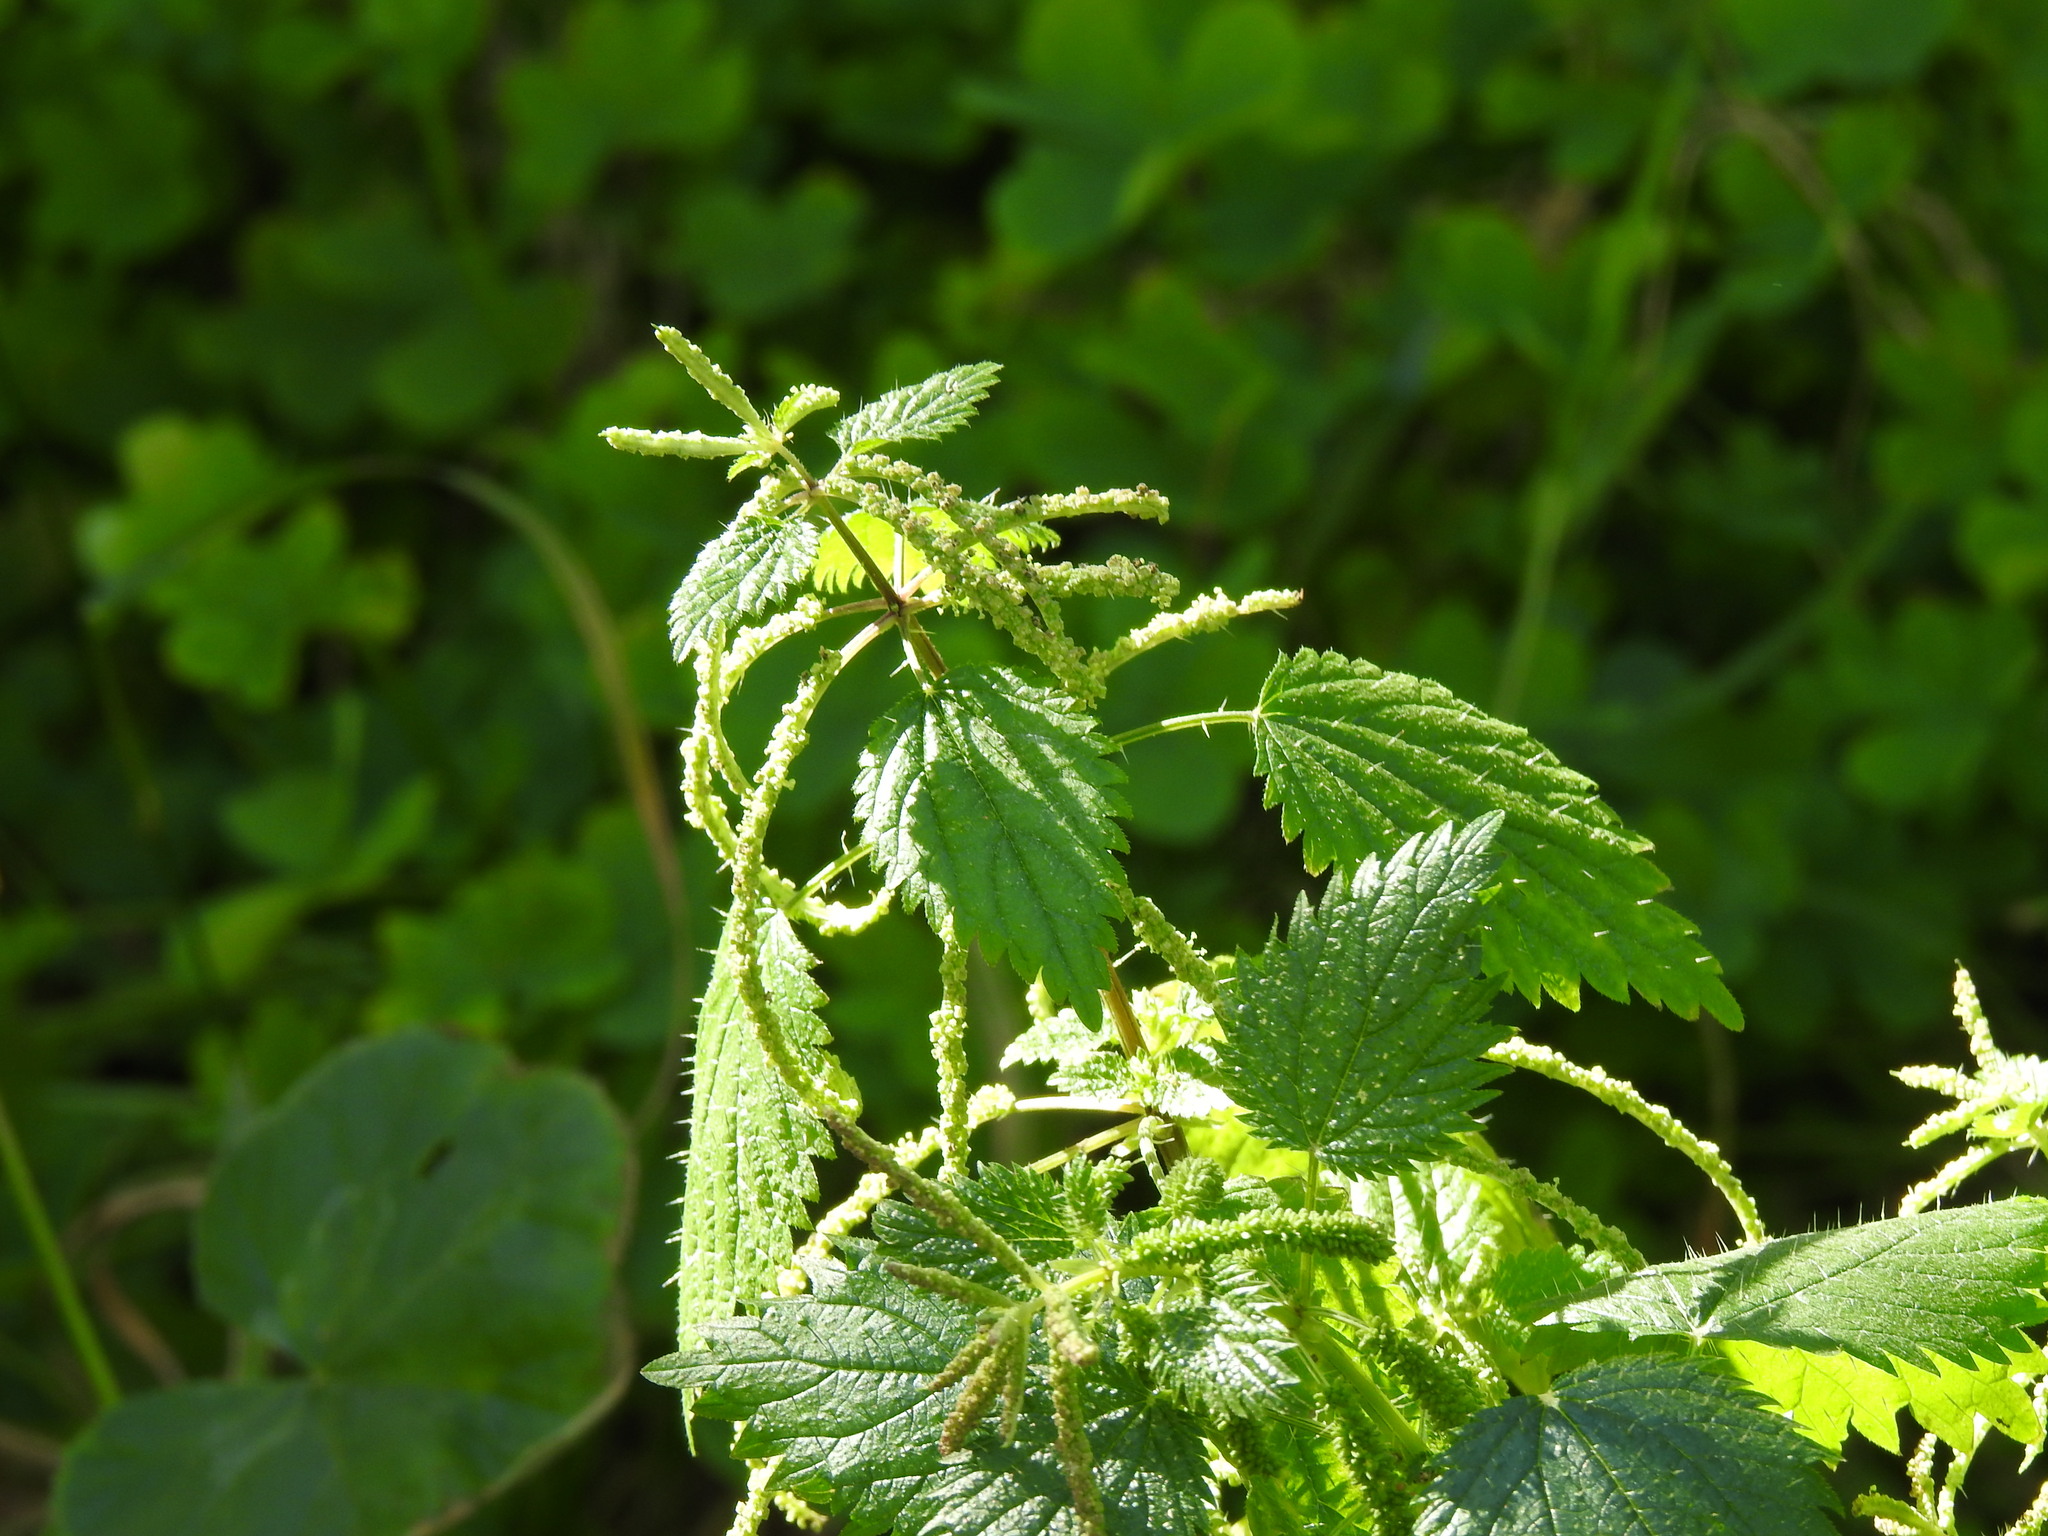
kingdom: Plantae
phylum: Tracheophyta
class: Magnoliopsida
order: Rosales
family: Urticaceae
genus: Urtica
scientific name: Urtica membranacea
